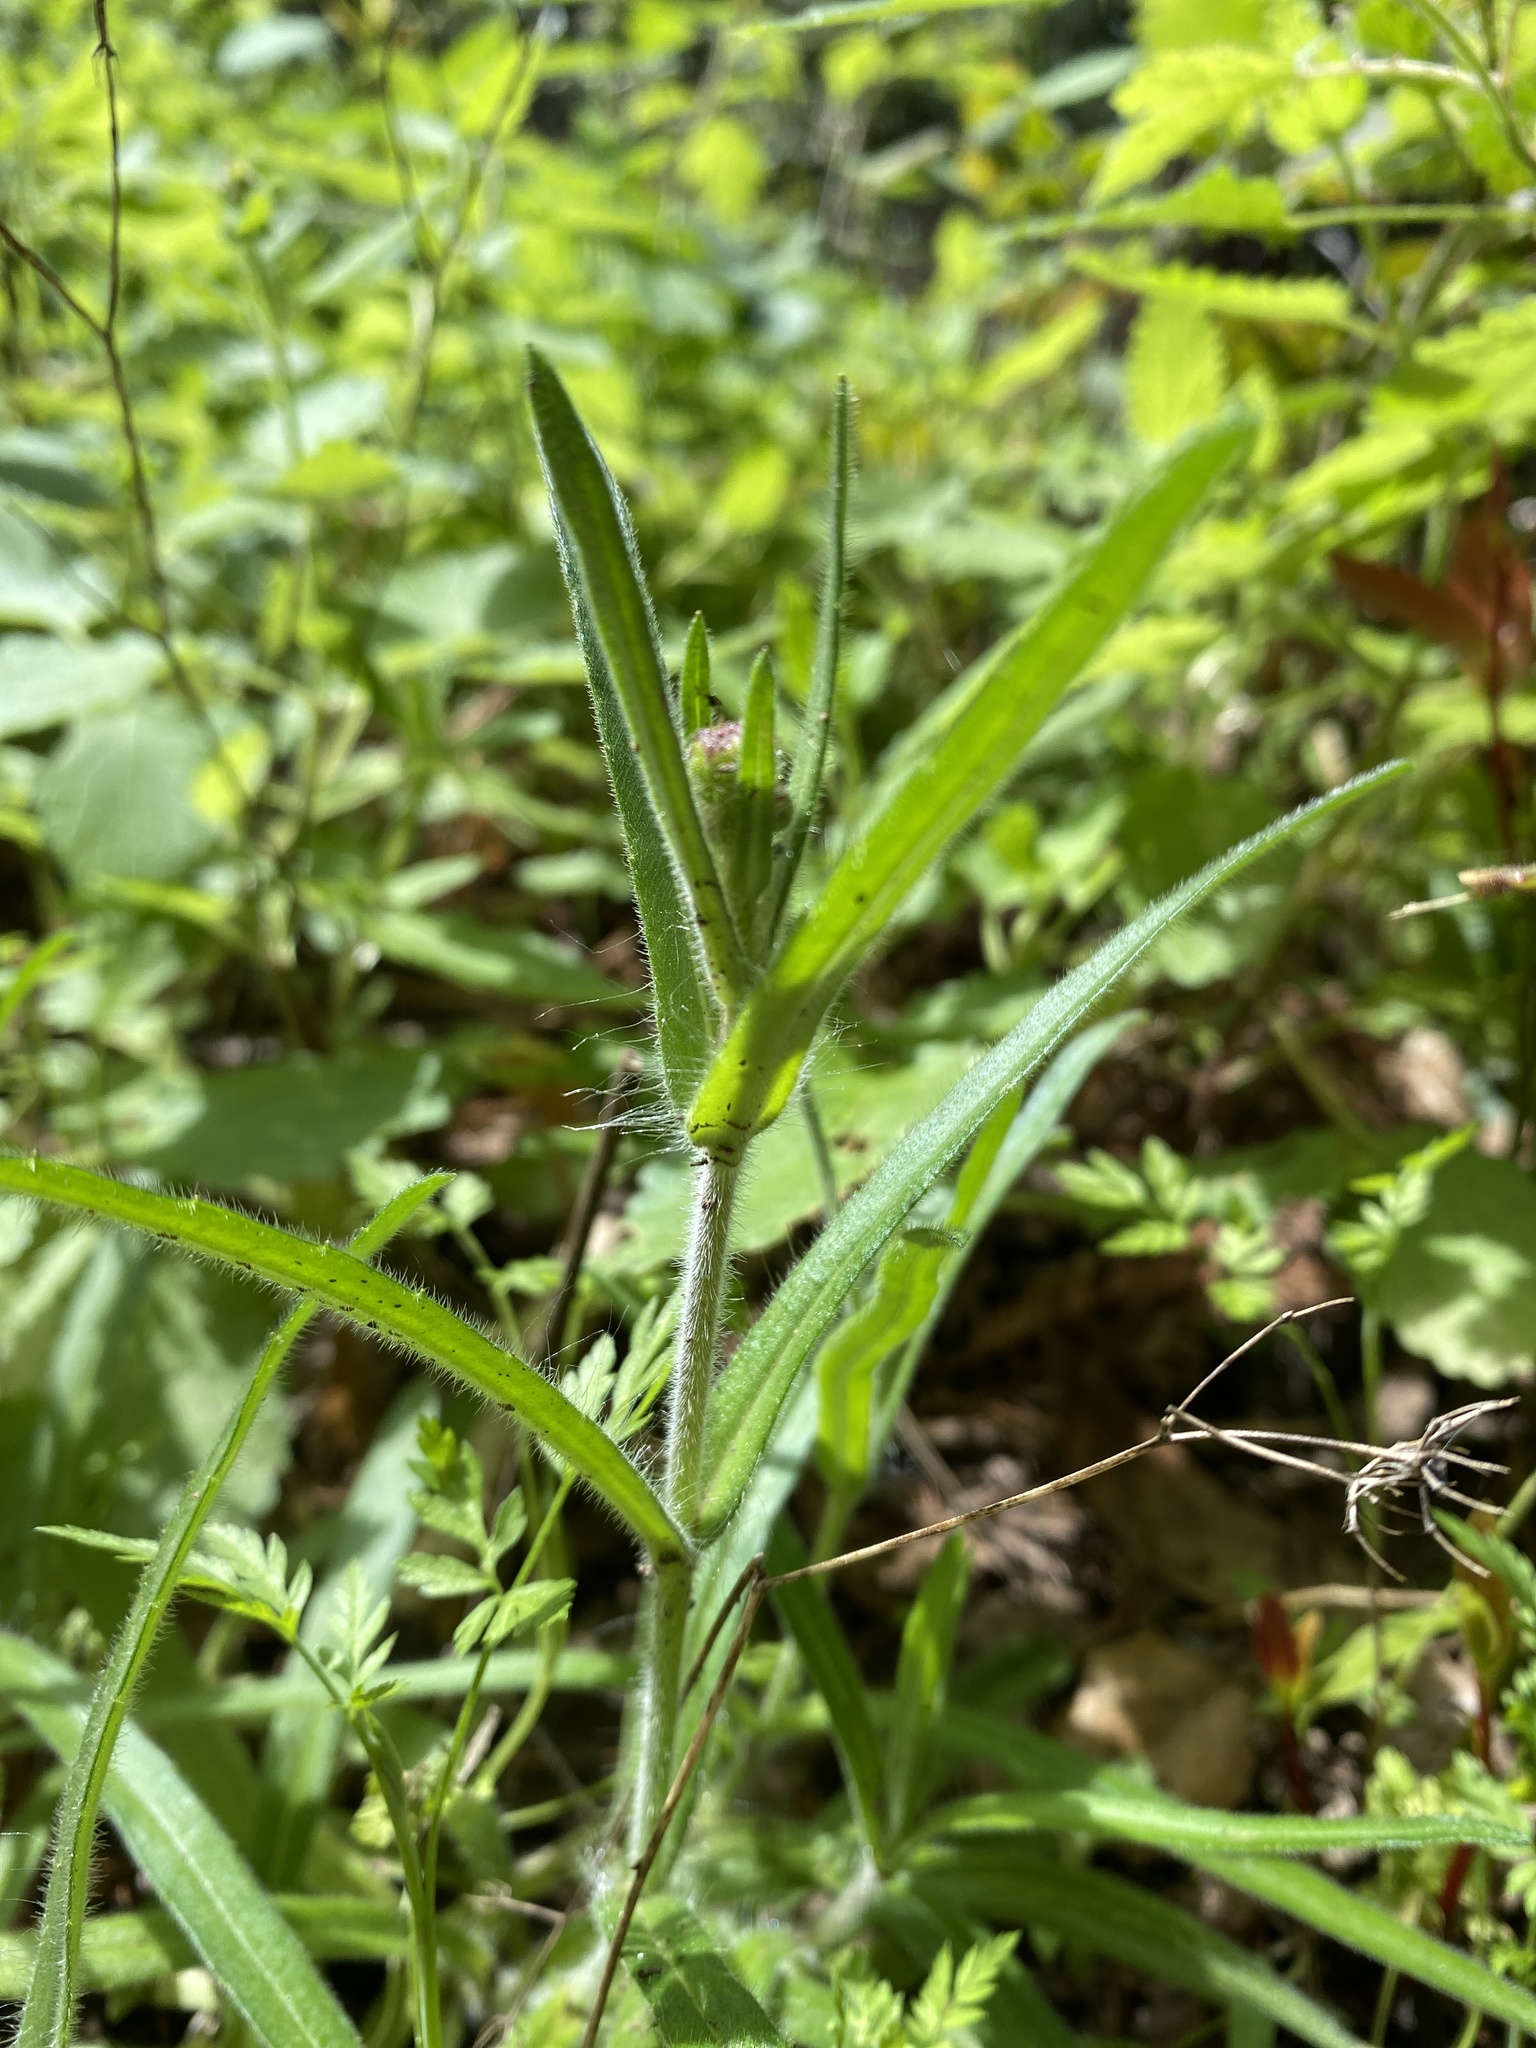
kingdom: Plantae
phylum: Tracheophyta
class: Magnoliopsida
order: Asterales
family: Asteraceae
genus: Anisocarpus
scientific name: Anisocarpus madioides
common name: Woodland madia
